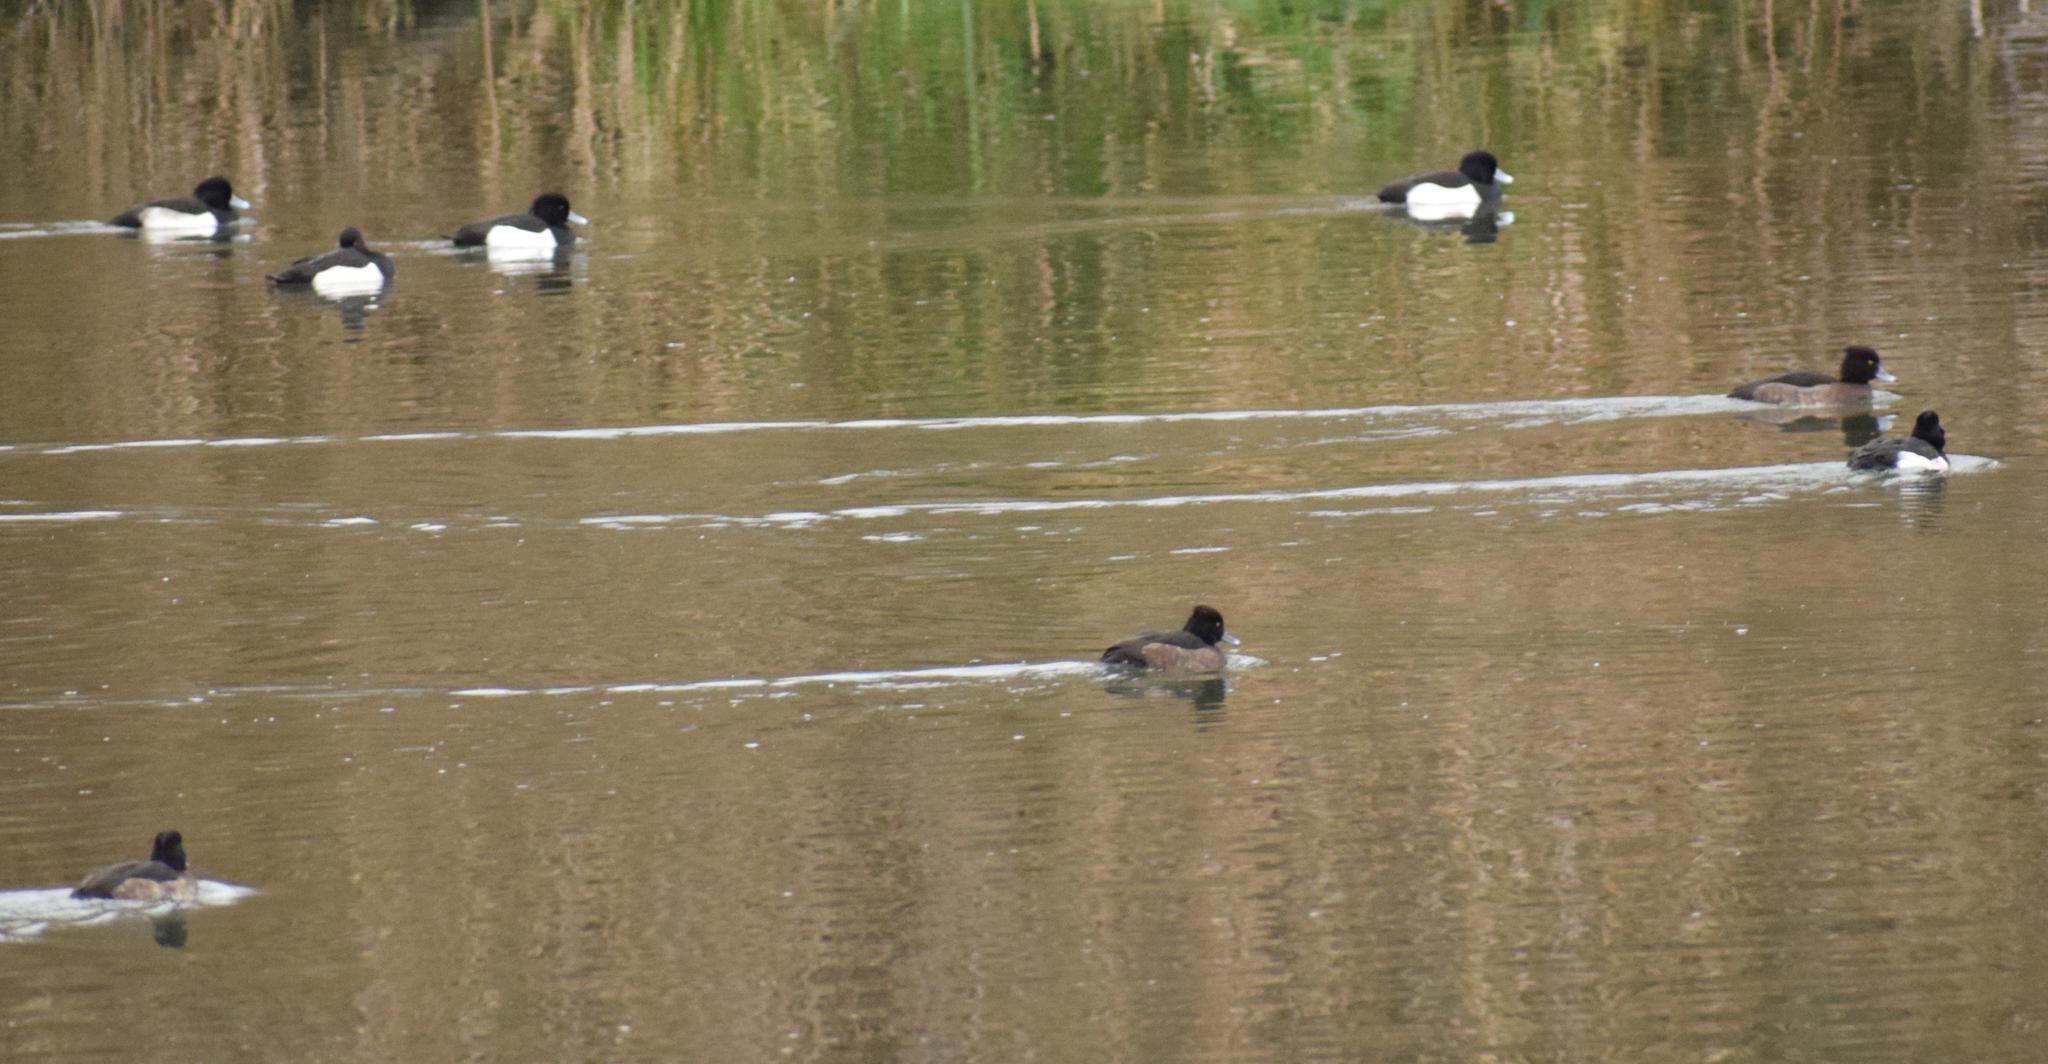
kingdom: Animalia
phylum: Chordata
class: Aves
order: Anseriformes
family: Anatidae
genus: Aythya
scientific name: Aythya fuligula
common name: Tufted duck
